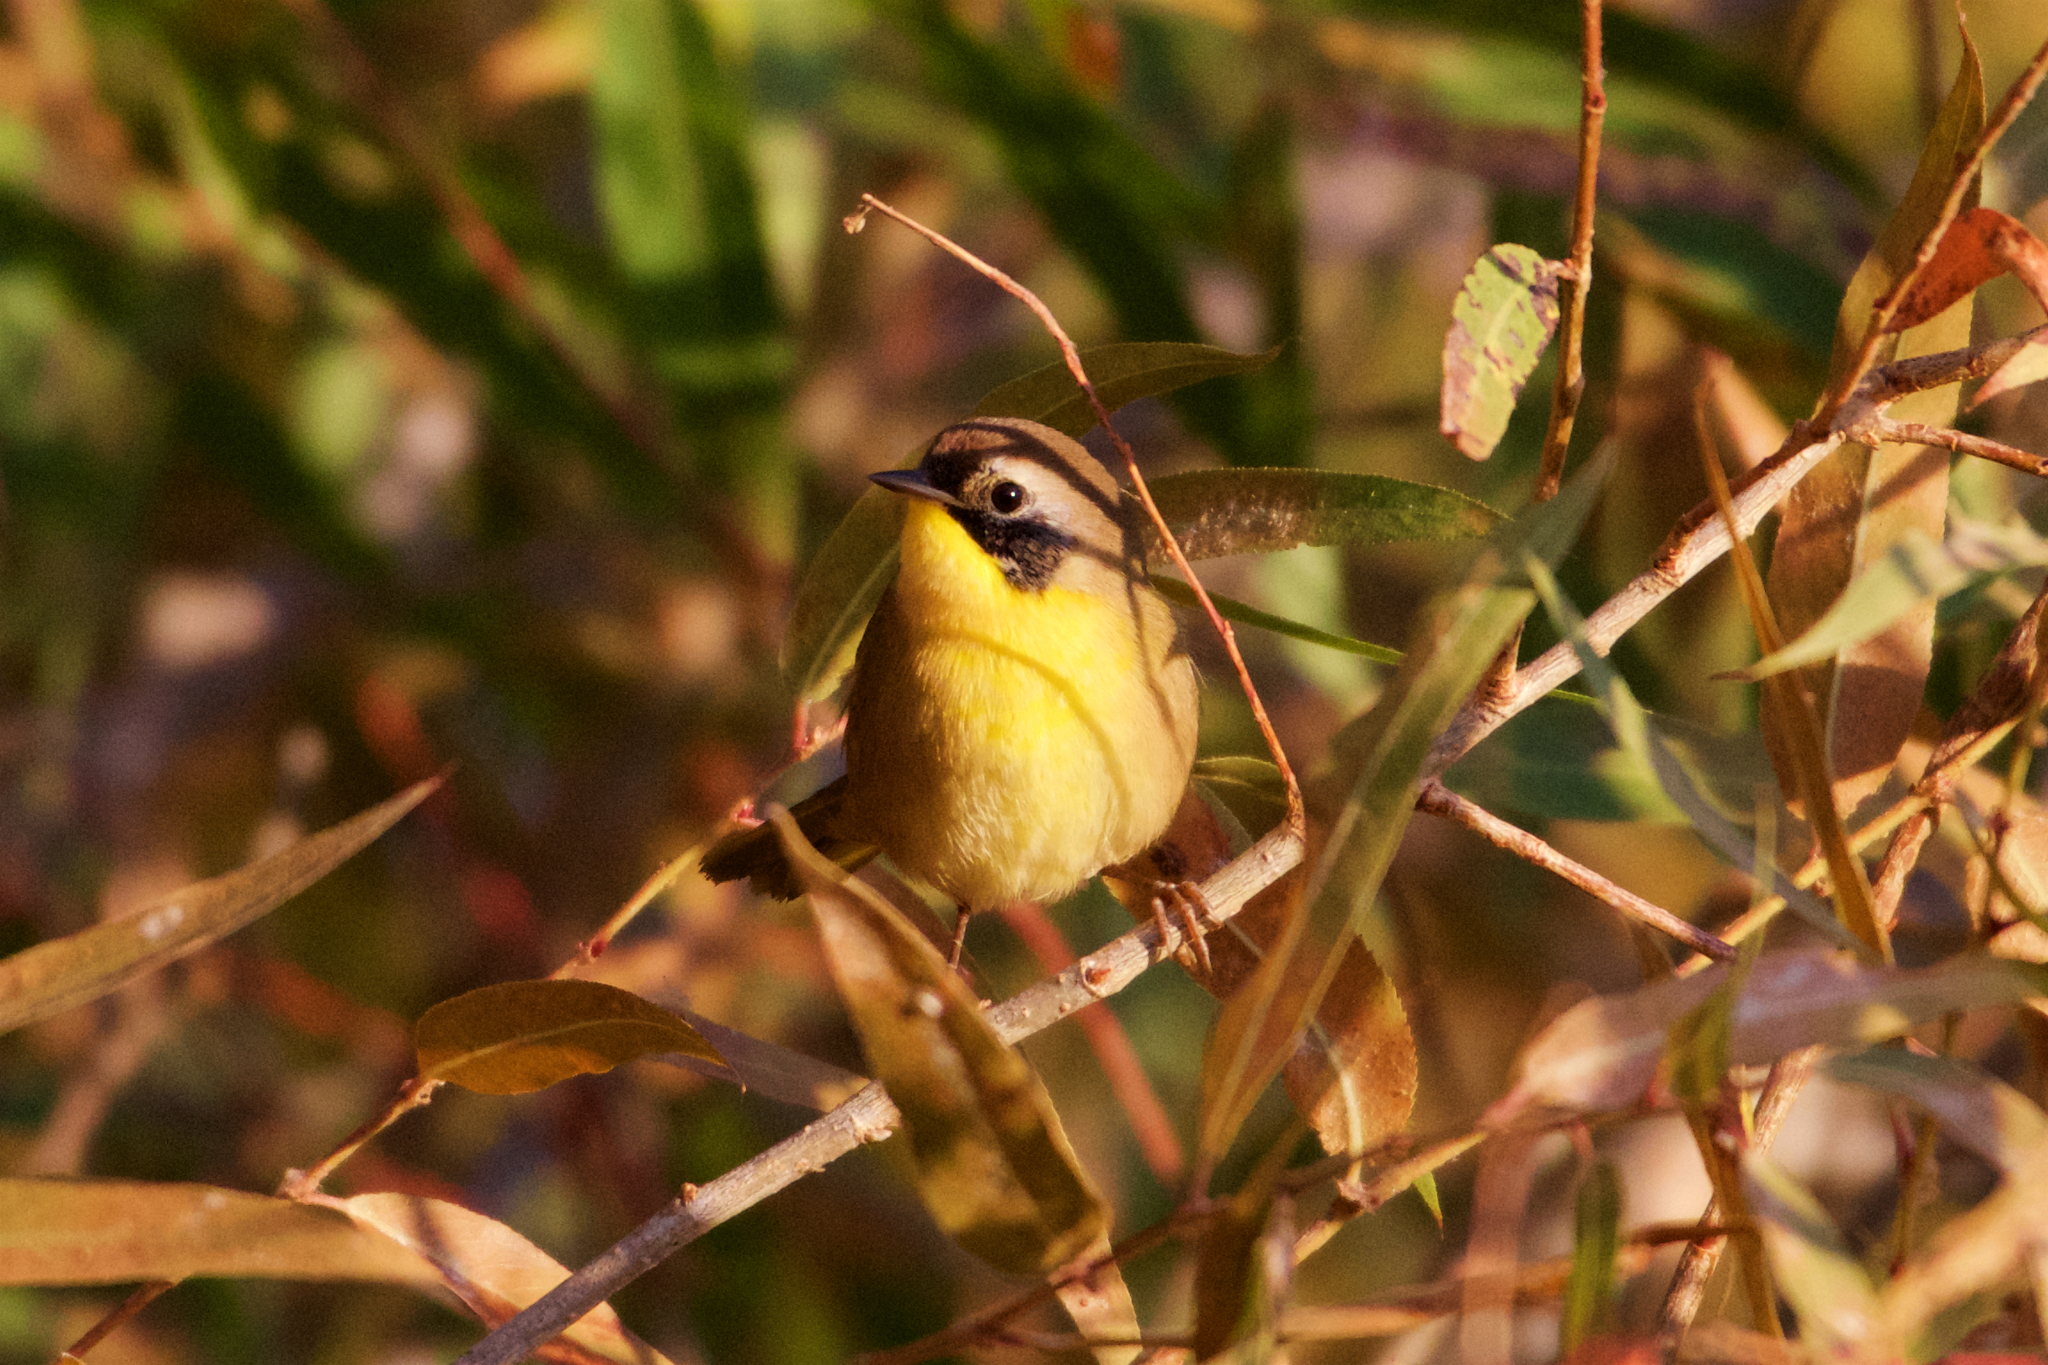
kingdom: Animalia
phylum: Chordata
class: Aves
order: Passeriformes
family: Parulidae
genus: Geothlypis
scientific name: Geothlypis trichas
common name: Common yellowthroat
